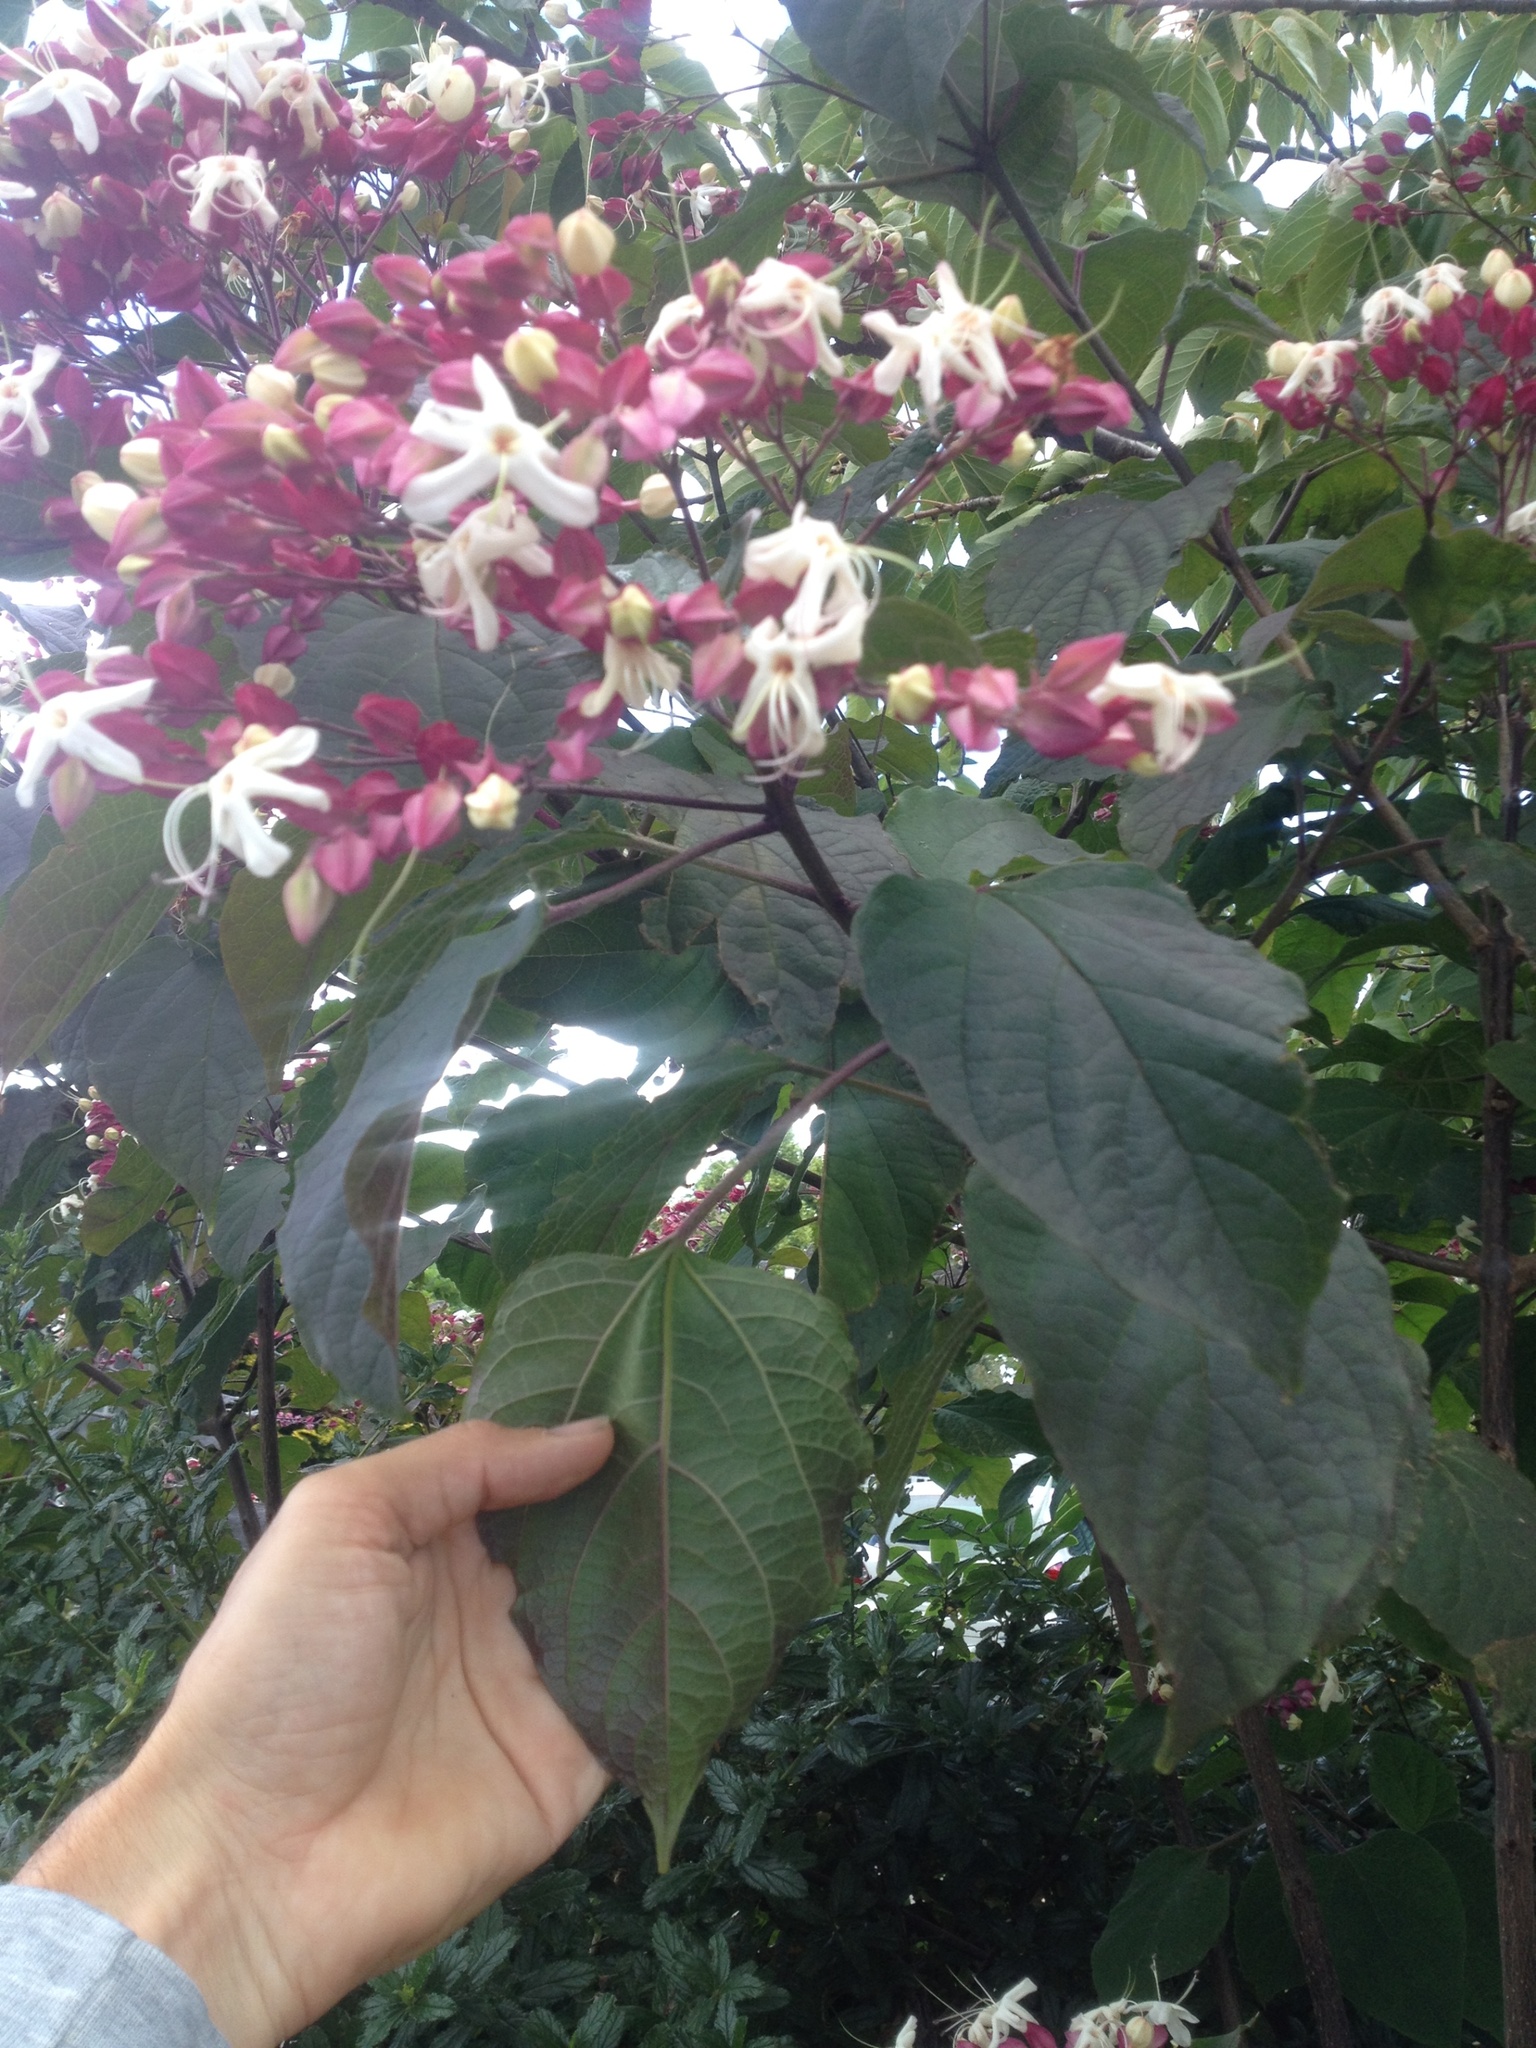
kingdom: Plantae
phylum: Tracheophyta
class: Magnoliopsida
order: Lamiales
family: Lamiaceae
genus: Clerodendrum
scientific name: Clerodendrum trichotomum
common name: Harlequin glorybower
